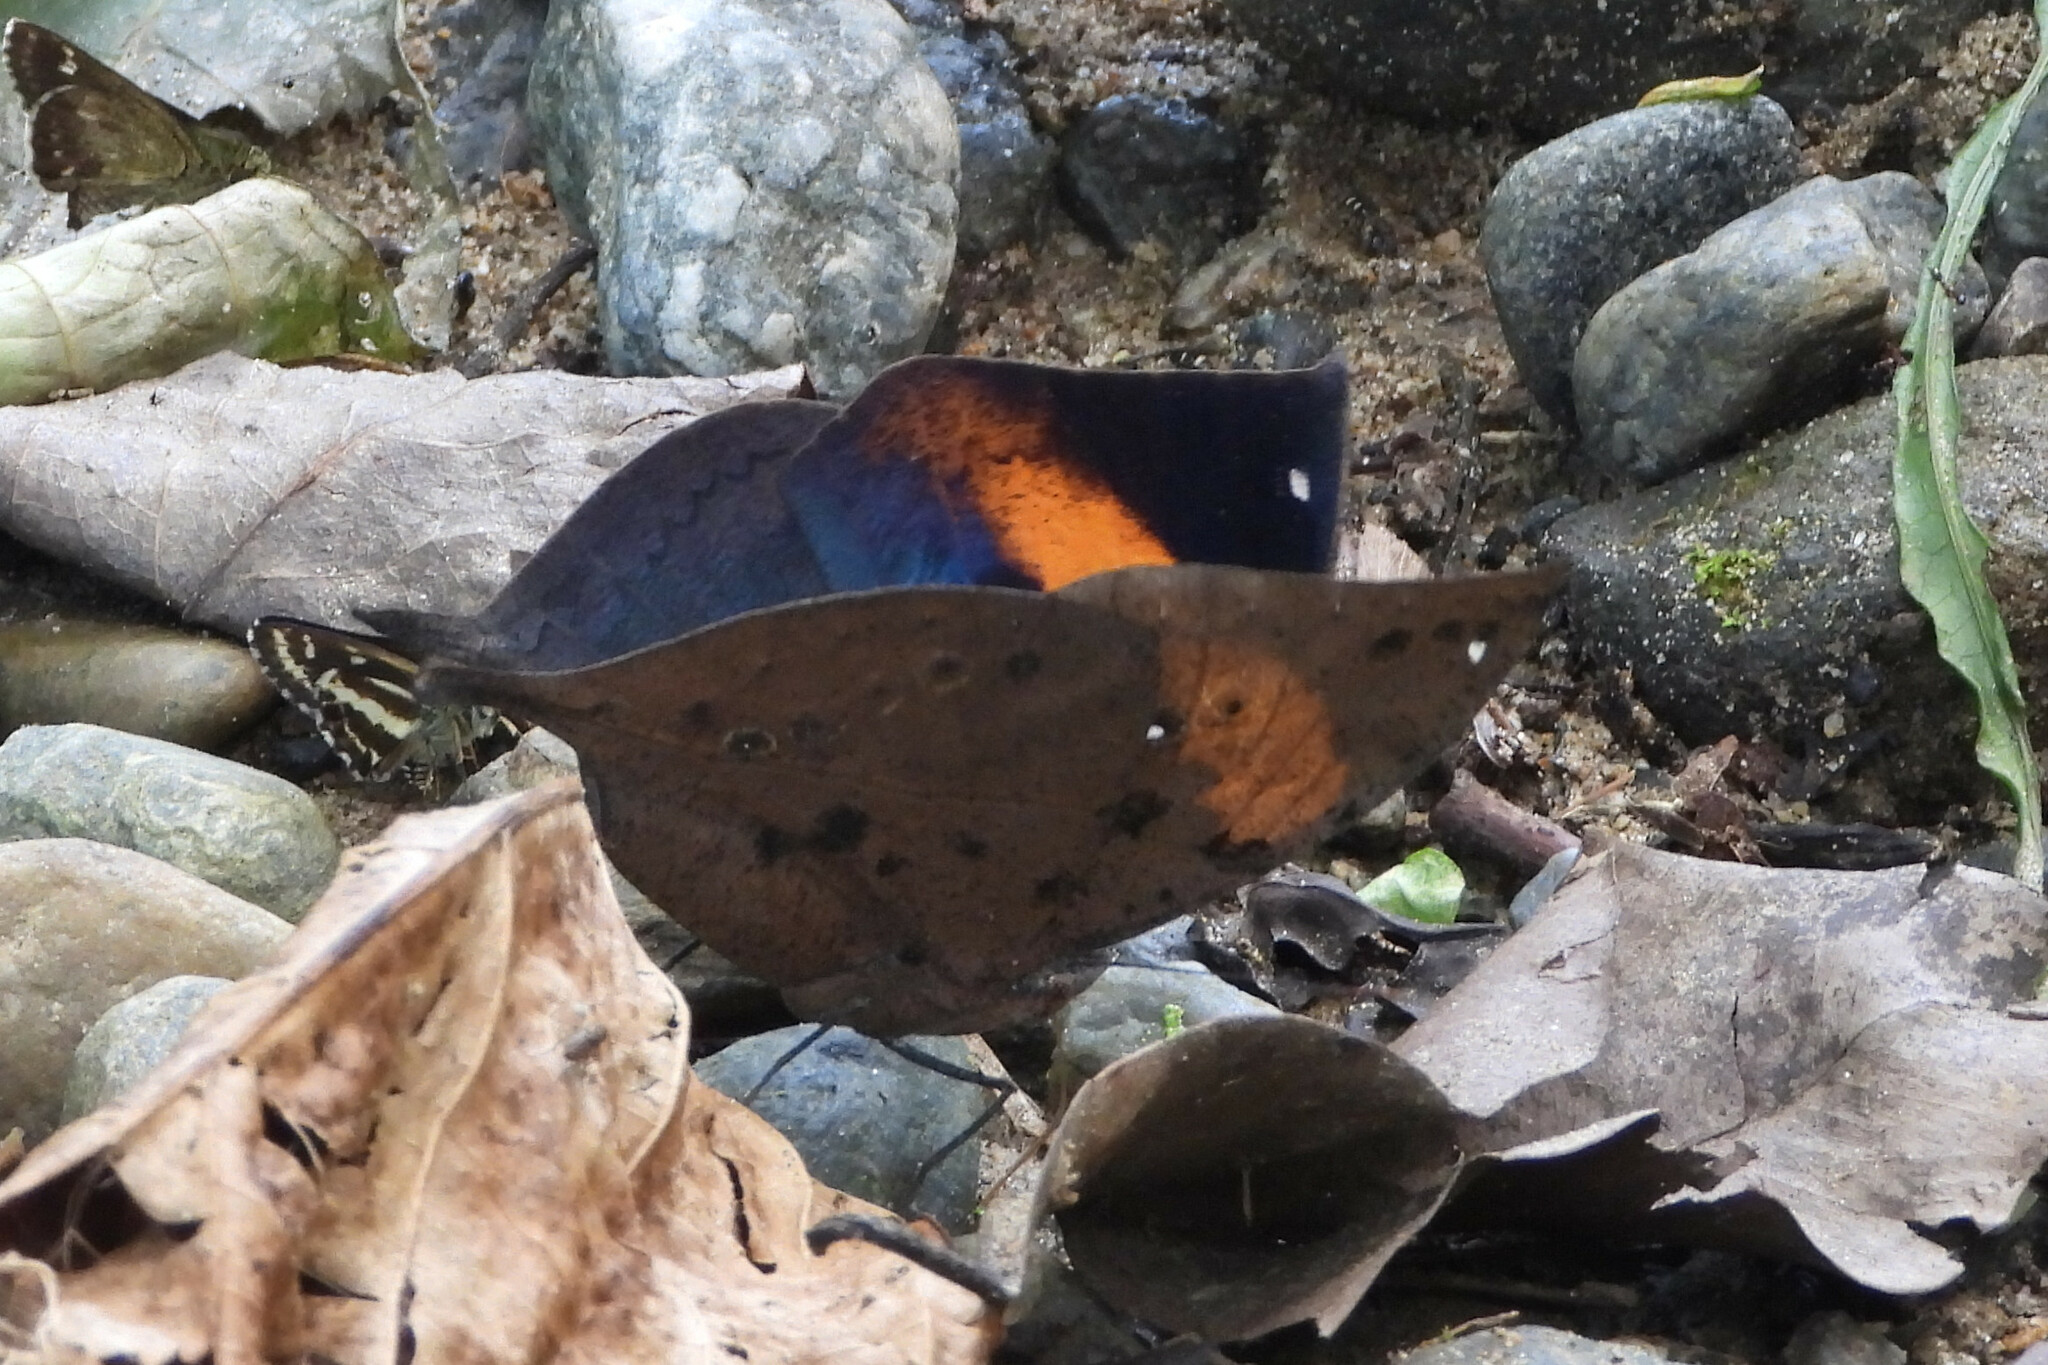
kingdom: Animalia
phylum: Arthropoda
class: Insecta
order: Lepidoptera
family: Nymphalidae
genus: Kallima
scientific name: Kallima inachus
